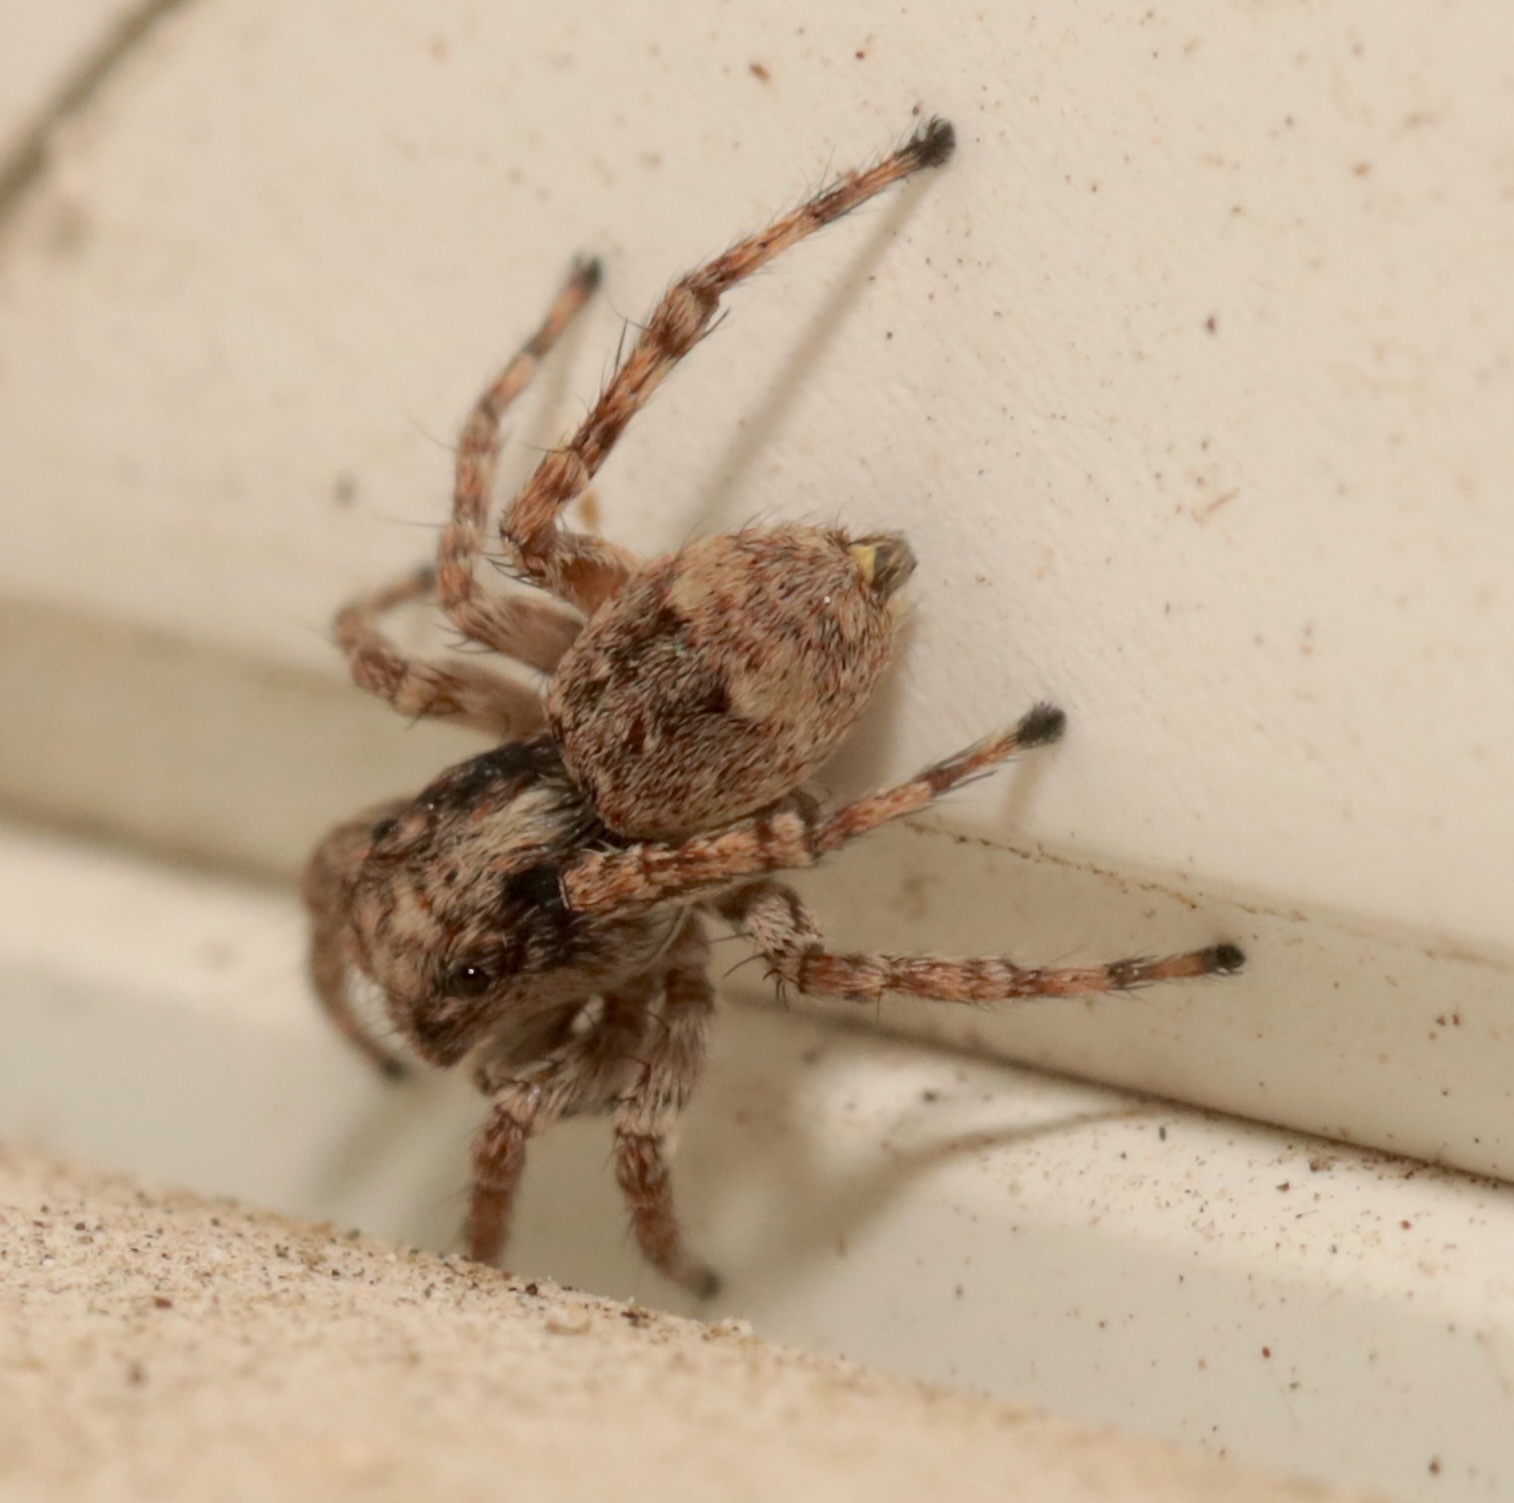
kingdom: Animalia
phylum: Arthropoda
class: Arachnida
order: Araneae
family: Salticidae
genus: Attulus
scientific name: Attulus fasciger
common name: Asiatic wall jumping spider
